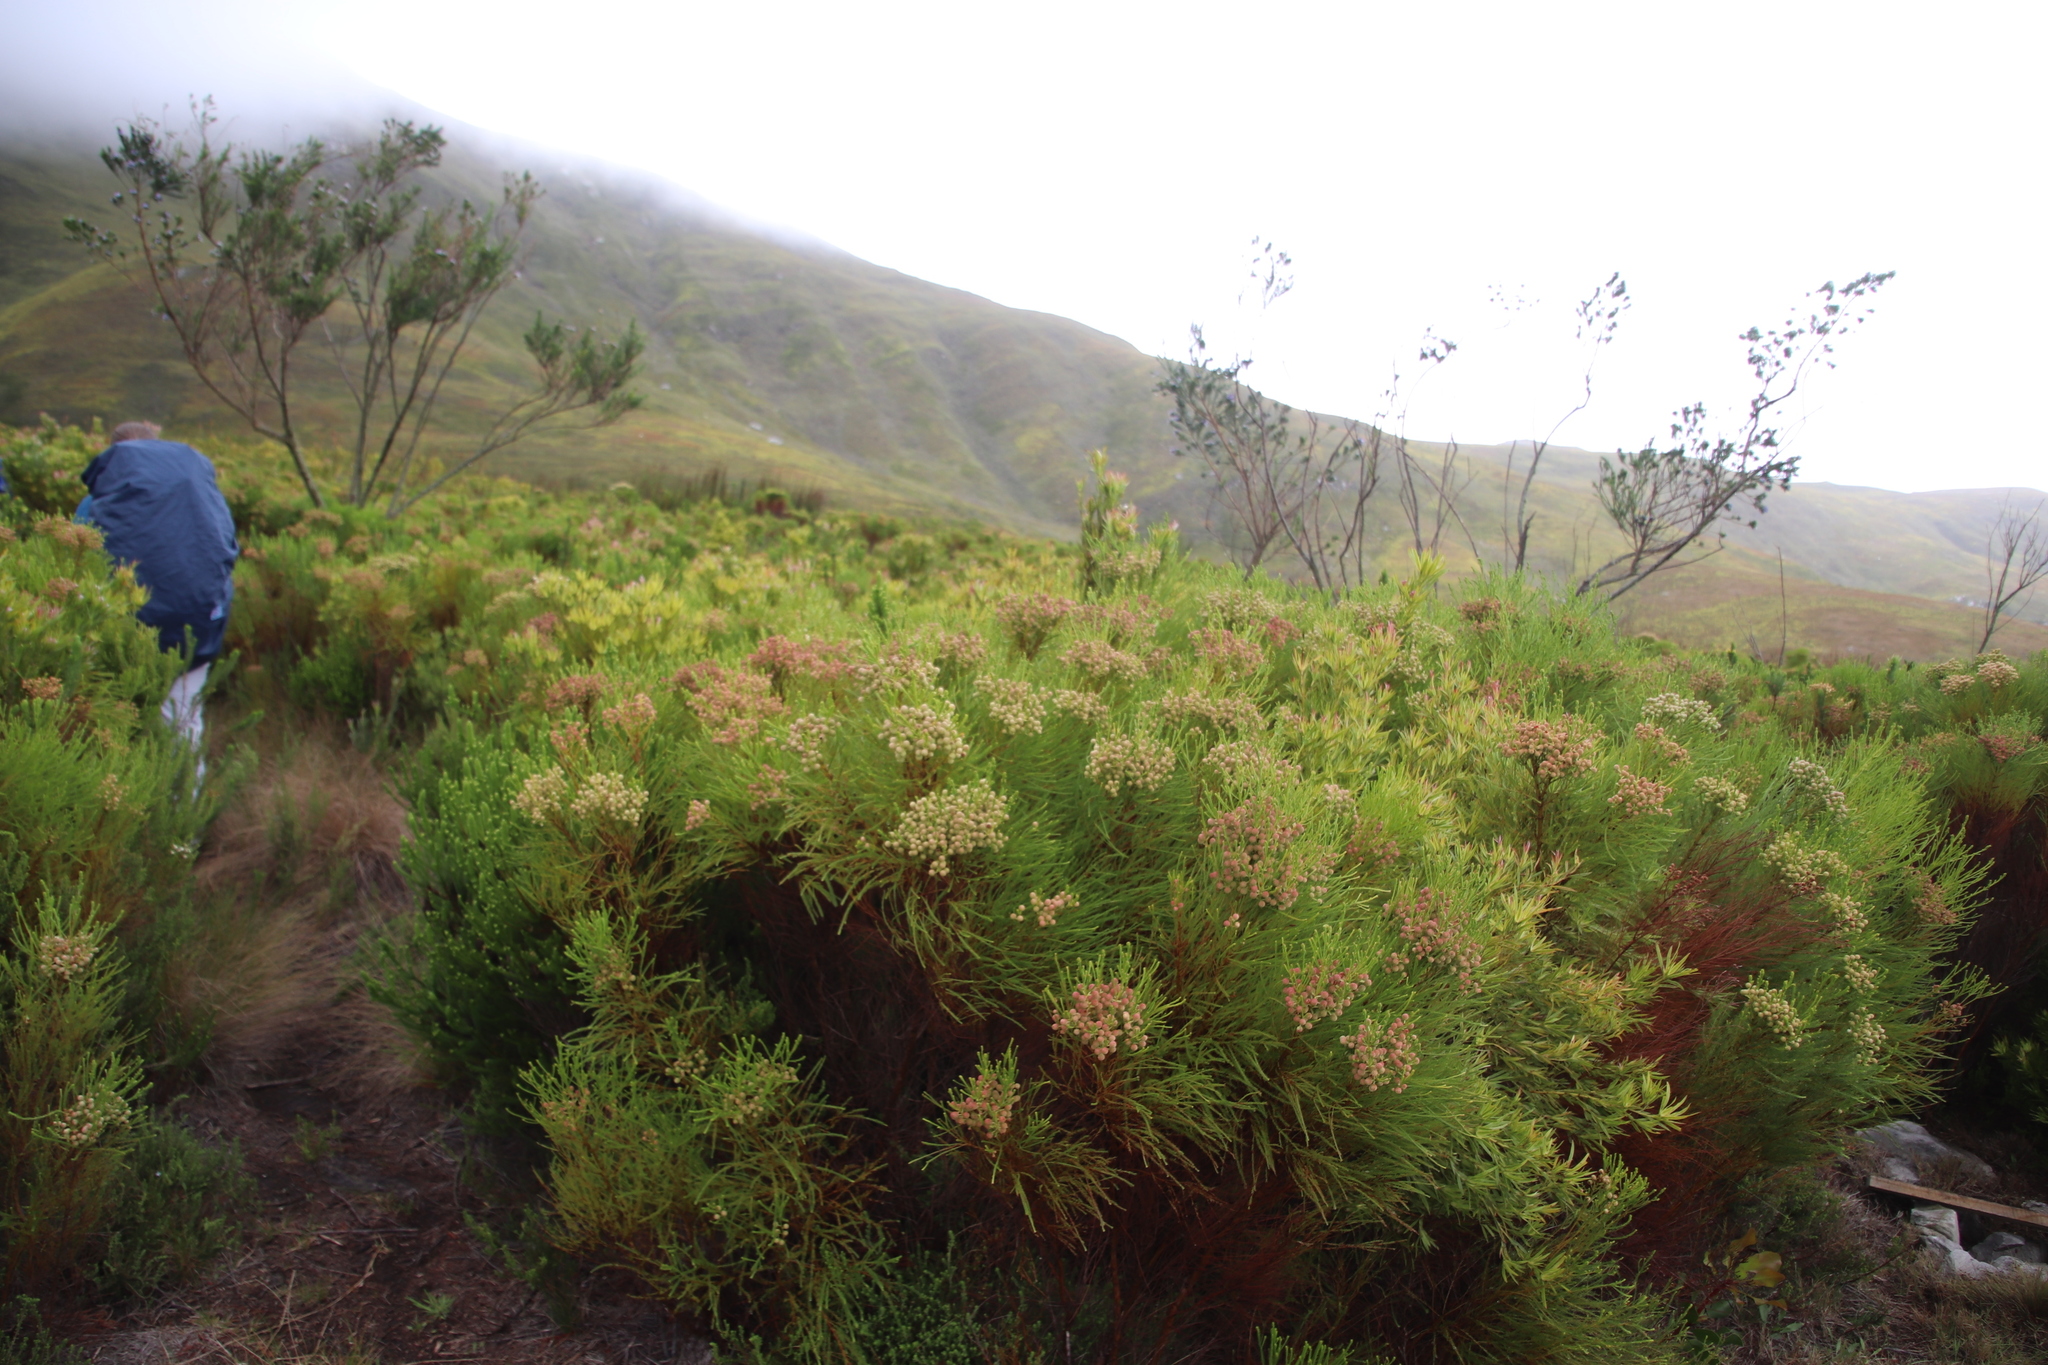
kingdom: Plantae
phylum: Tracheophyta
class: Magnoliopsida
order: Bruniales
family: Bruniaceae
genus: Berzelia
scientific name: Berzelia lanuginosa
